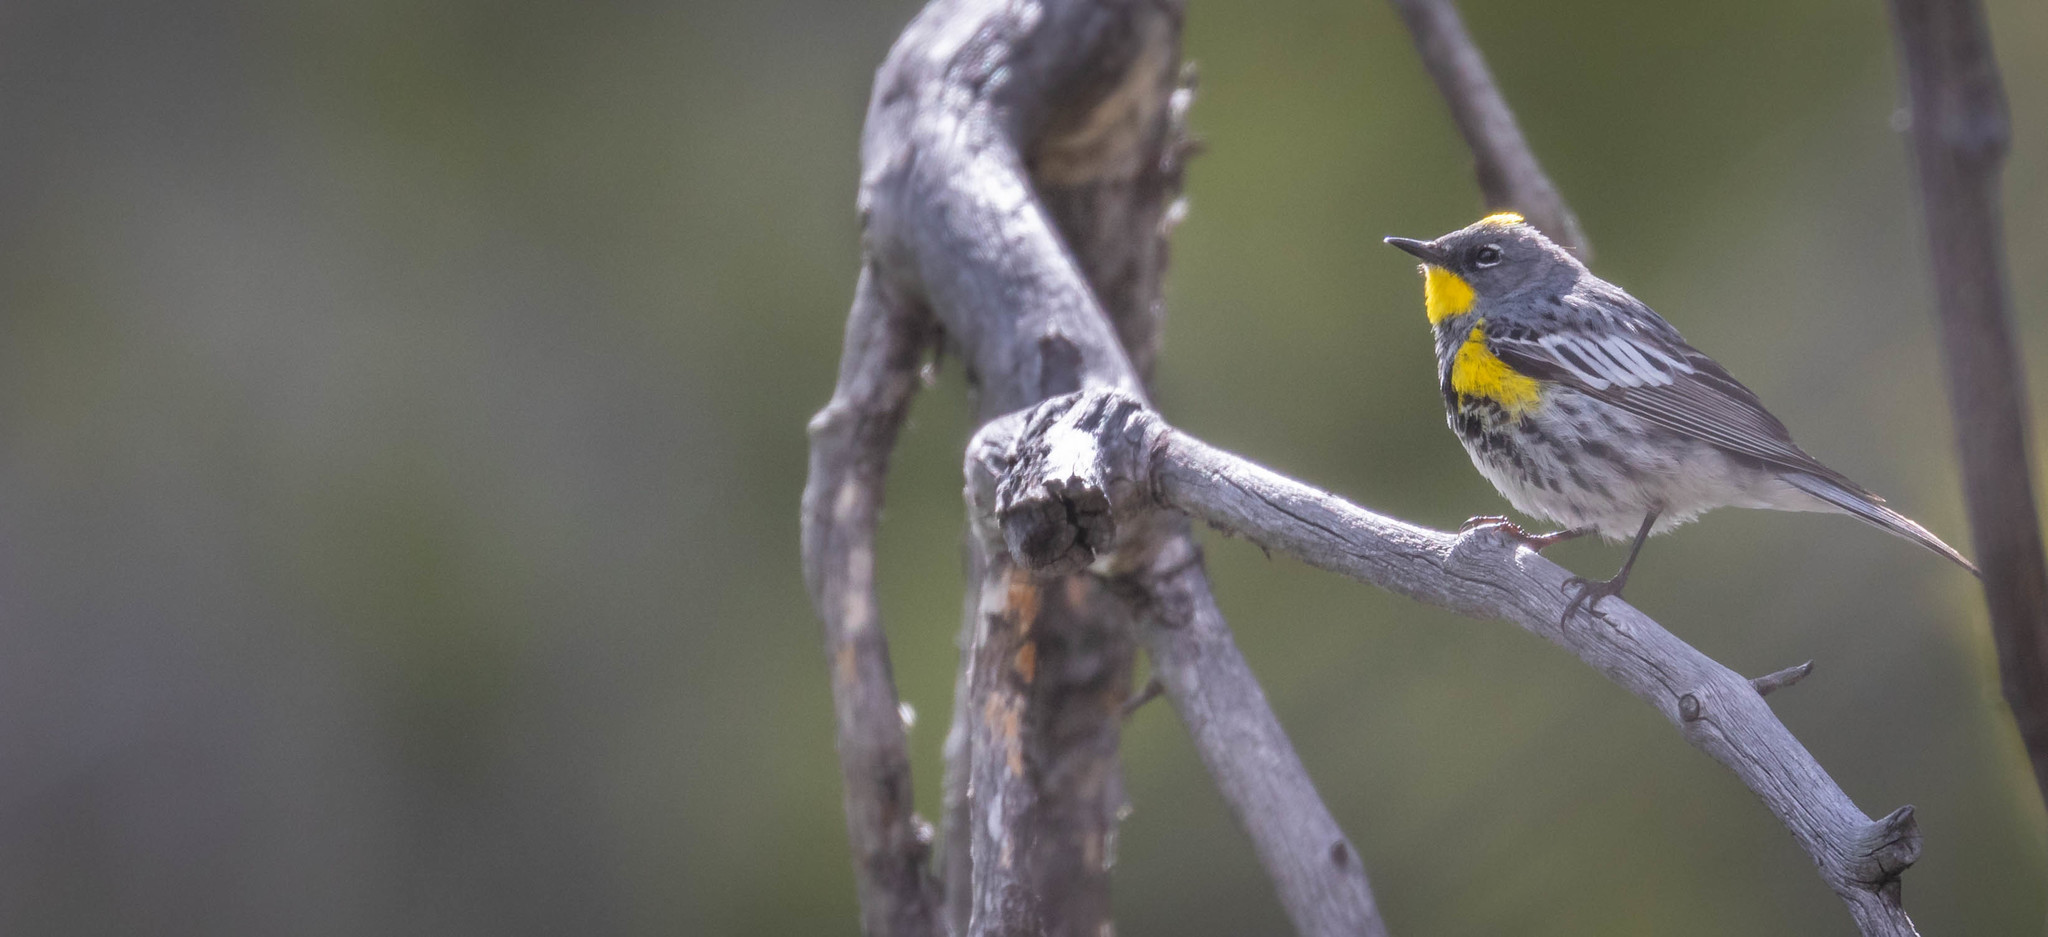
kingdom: Animalia
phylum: Chordata
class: Aves
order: Passeriformes
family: Parulidae
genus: Setophaga
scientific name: Setophaga coronata
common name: Myrtle warbler
